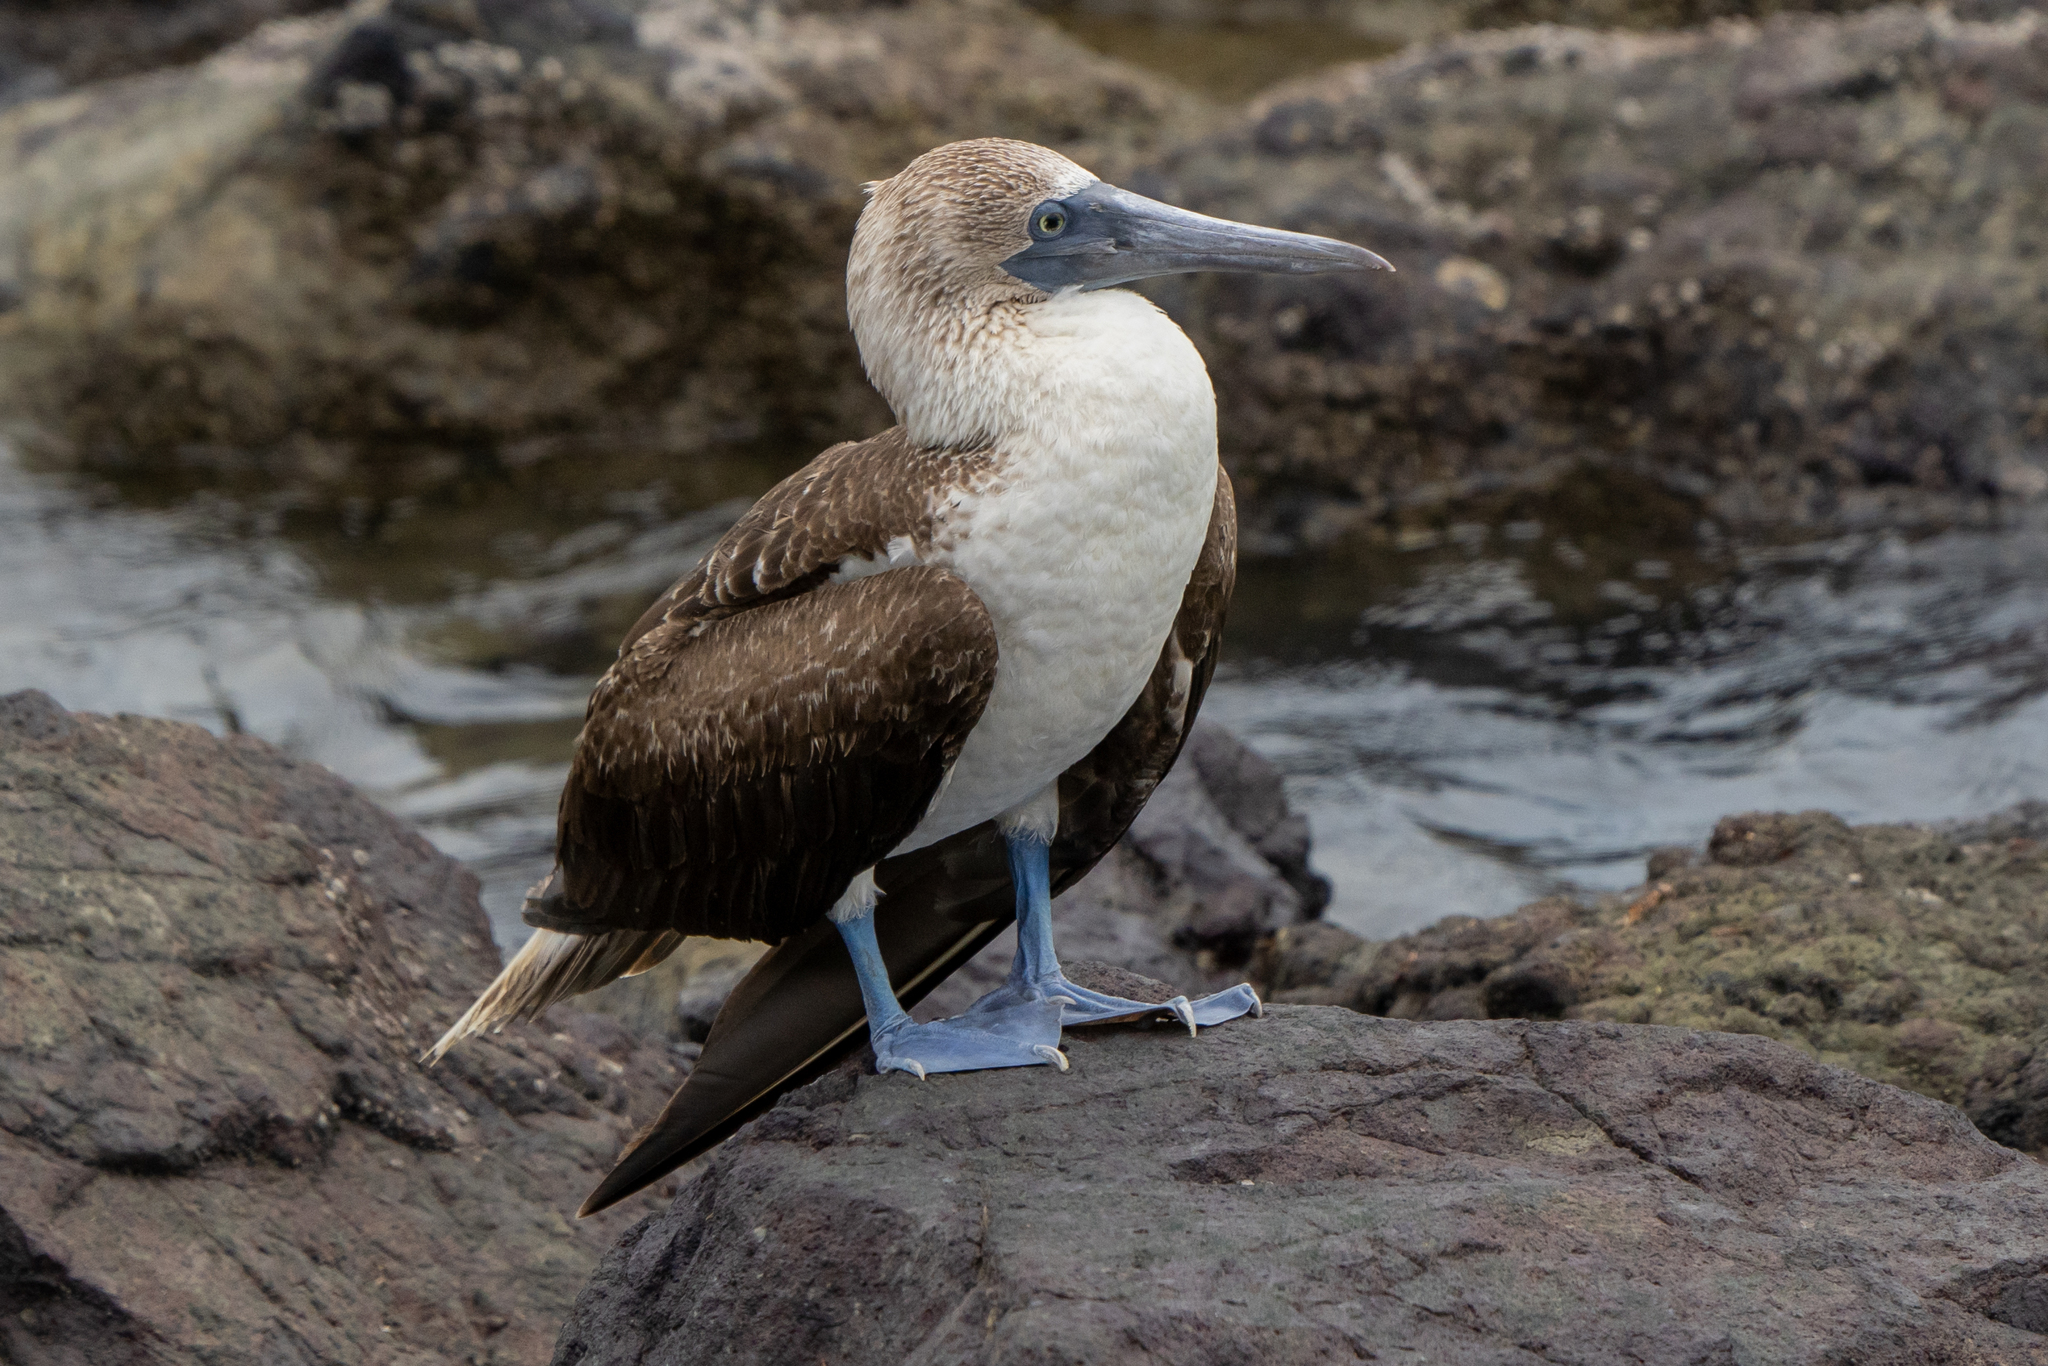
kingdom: Animalia
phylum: Chordata
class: Aves
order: Suliformes
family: Sulidae
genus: Sula
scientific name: Sula nebouxii
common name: Blue-footed booby
